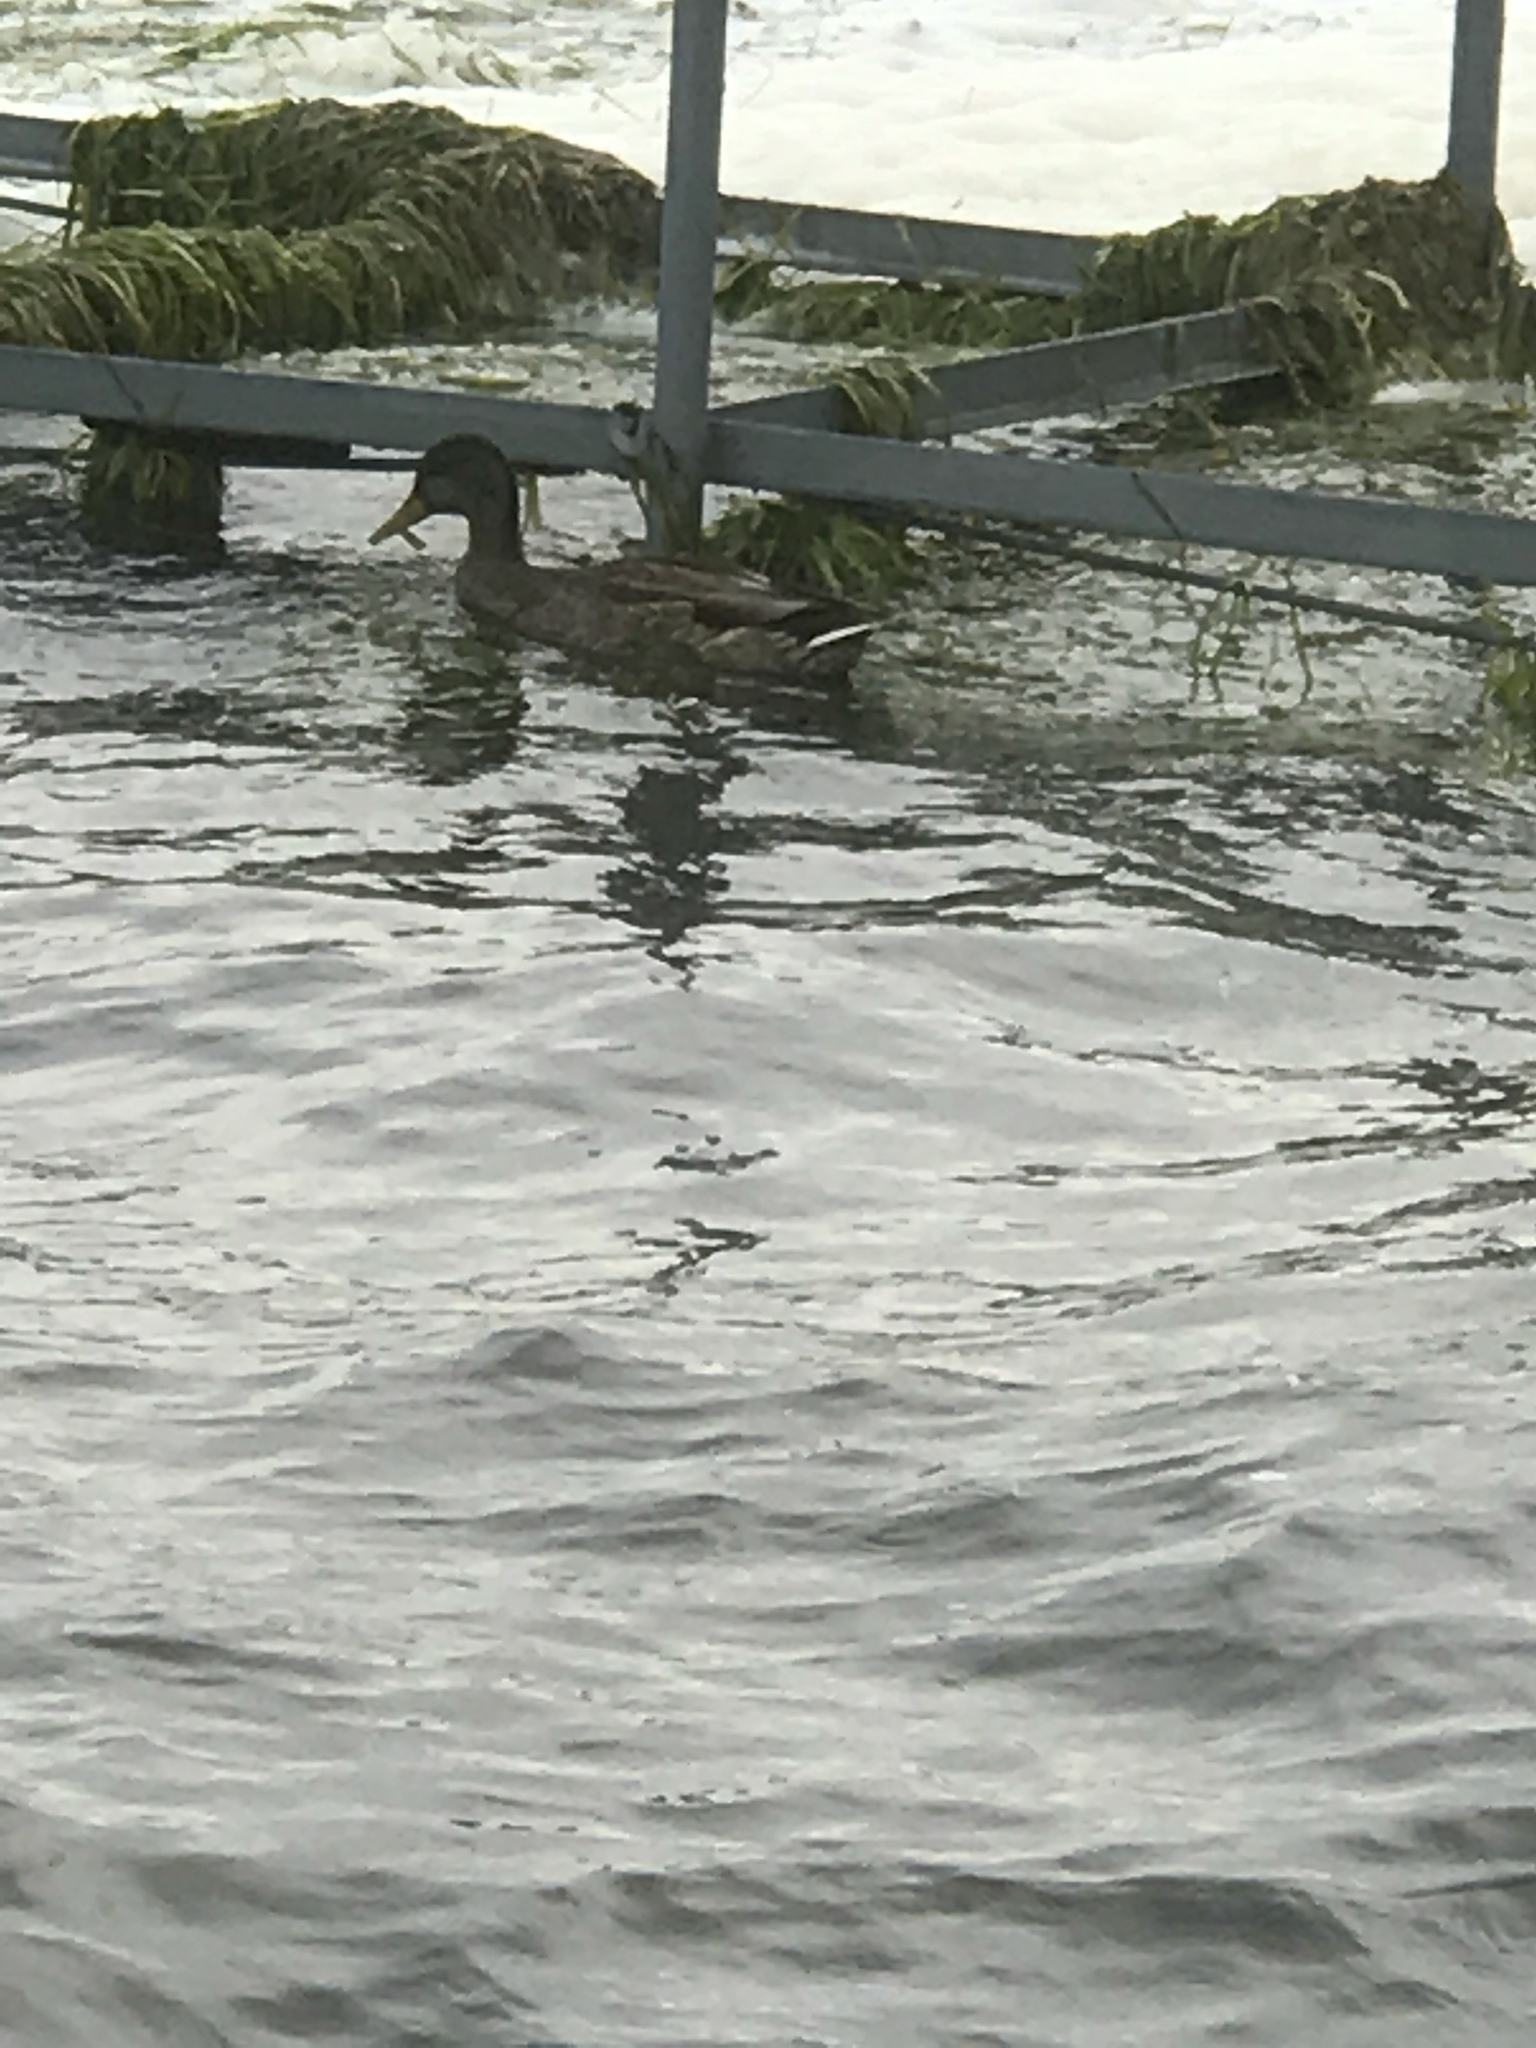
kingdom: Animalia
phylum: Chordata
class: Aves
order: Anseriformes
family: Anatidae
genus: Anas
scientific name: Anas platyrhynchos
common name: Mallard
